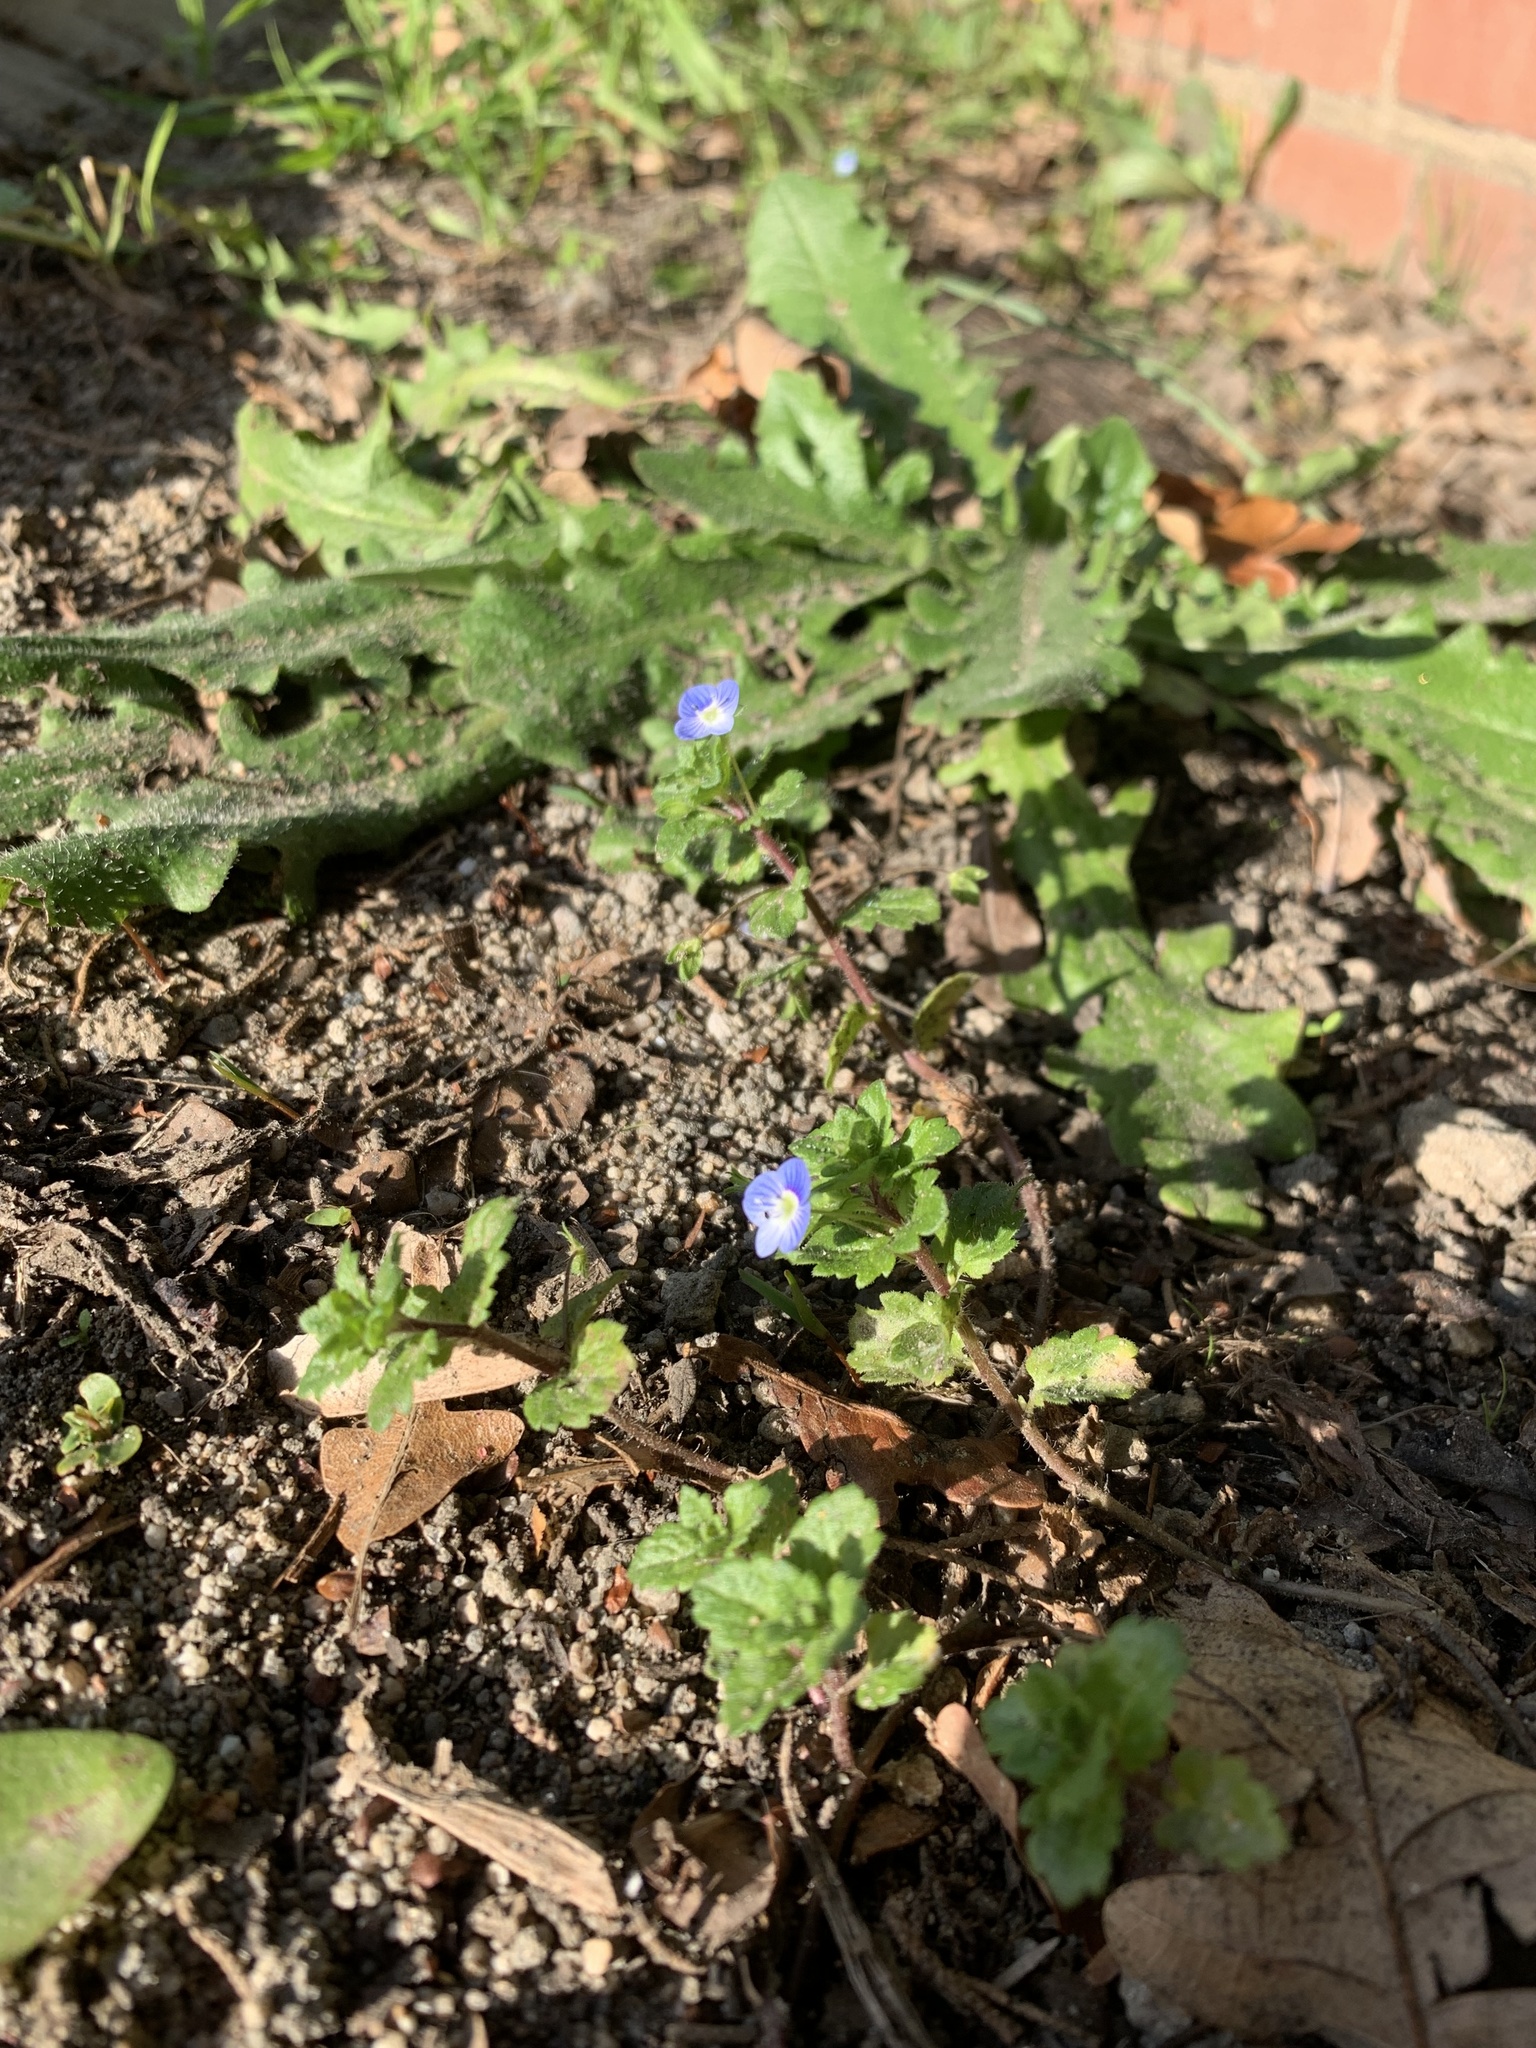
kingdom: Plantae
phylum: Tracheophyta
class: Magnoliopsida
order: Lamiales
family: Plantaginaceae
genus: Veronica
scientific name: Veronica persica
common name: Common field-speedwell
